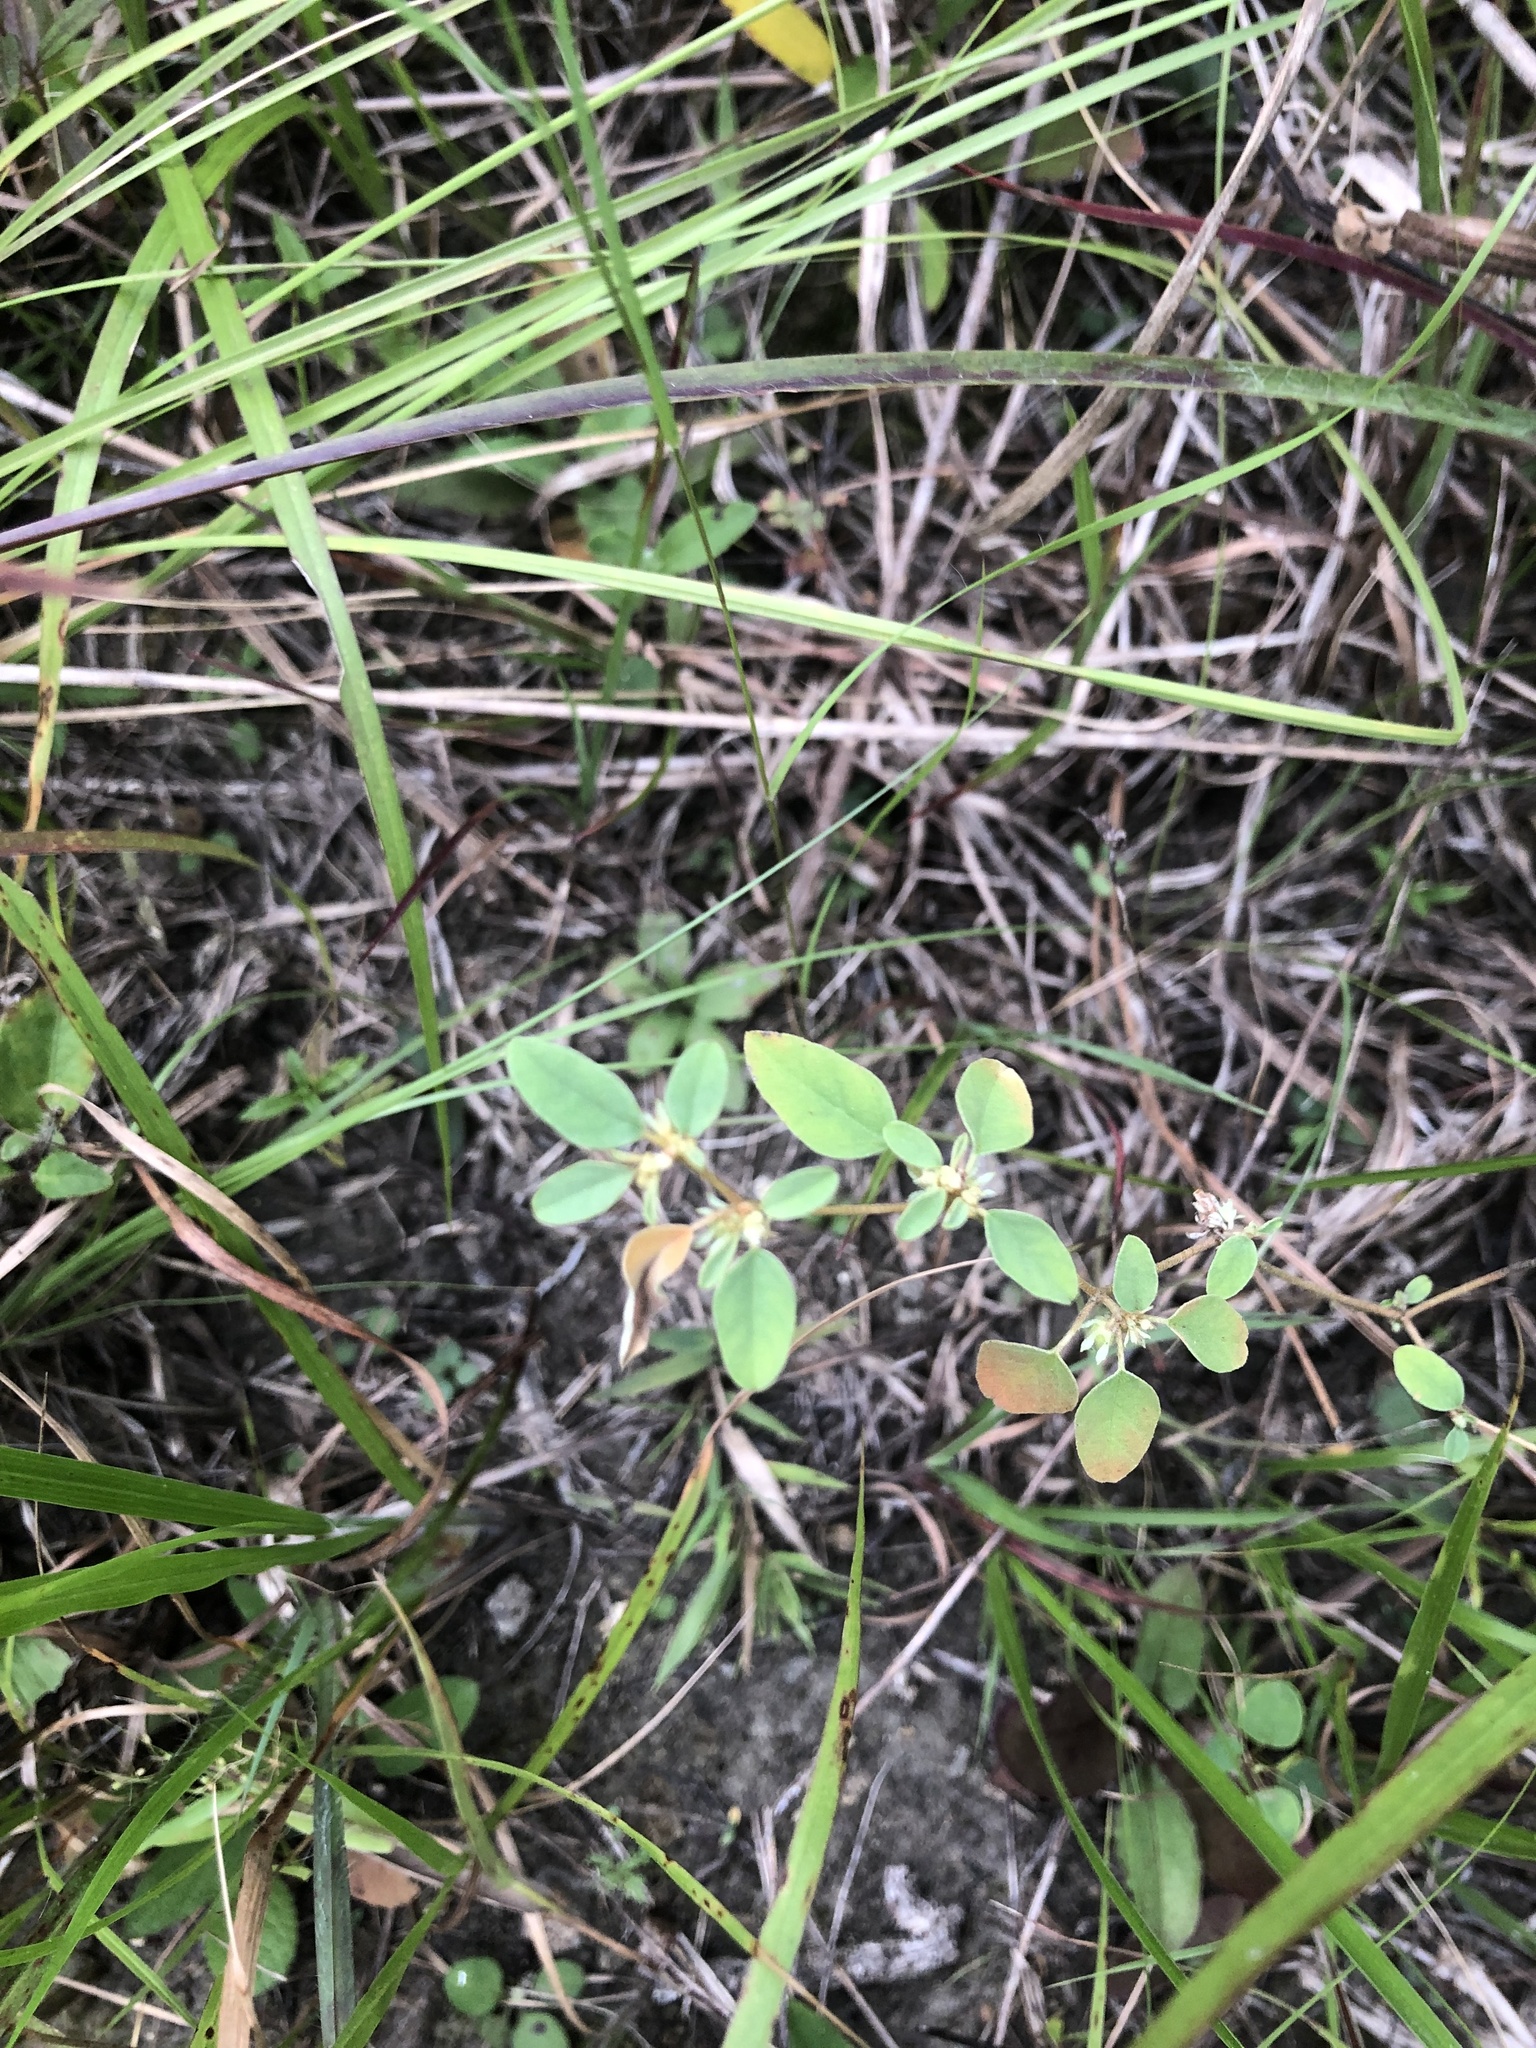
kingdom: Plantae
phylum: Tracheophyta
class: Magnoliopsida
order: Malpighiales
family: Euphorbiaceae
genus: Croton
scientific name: Croton monanthogynus
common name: One-seed croton
